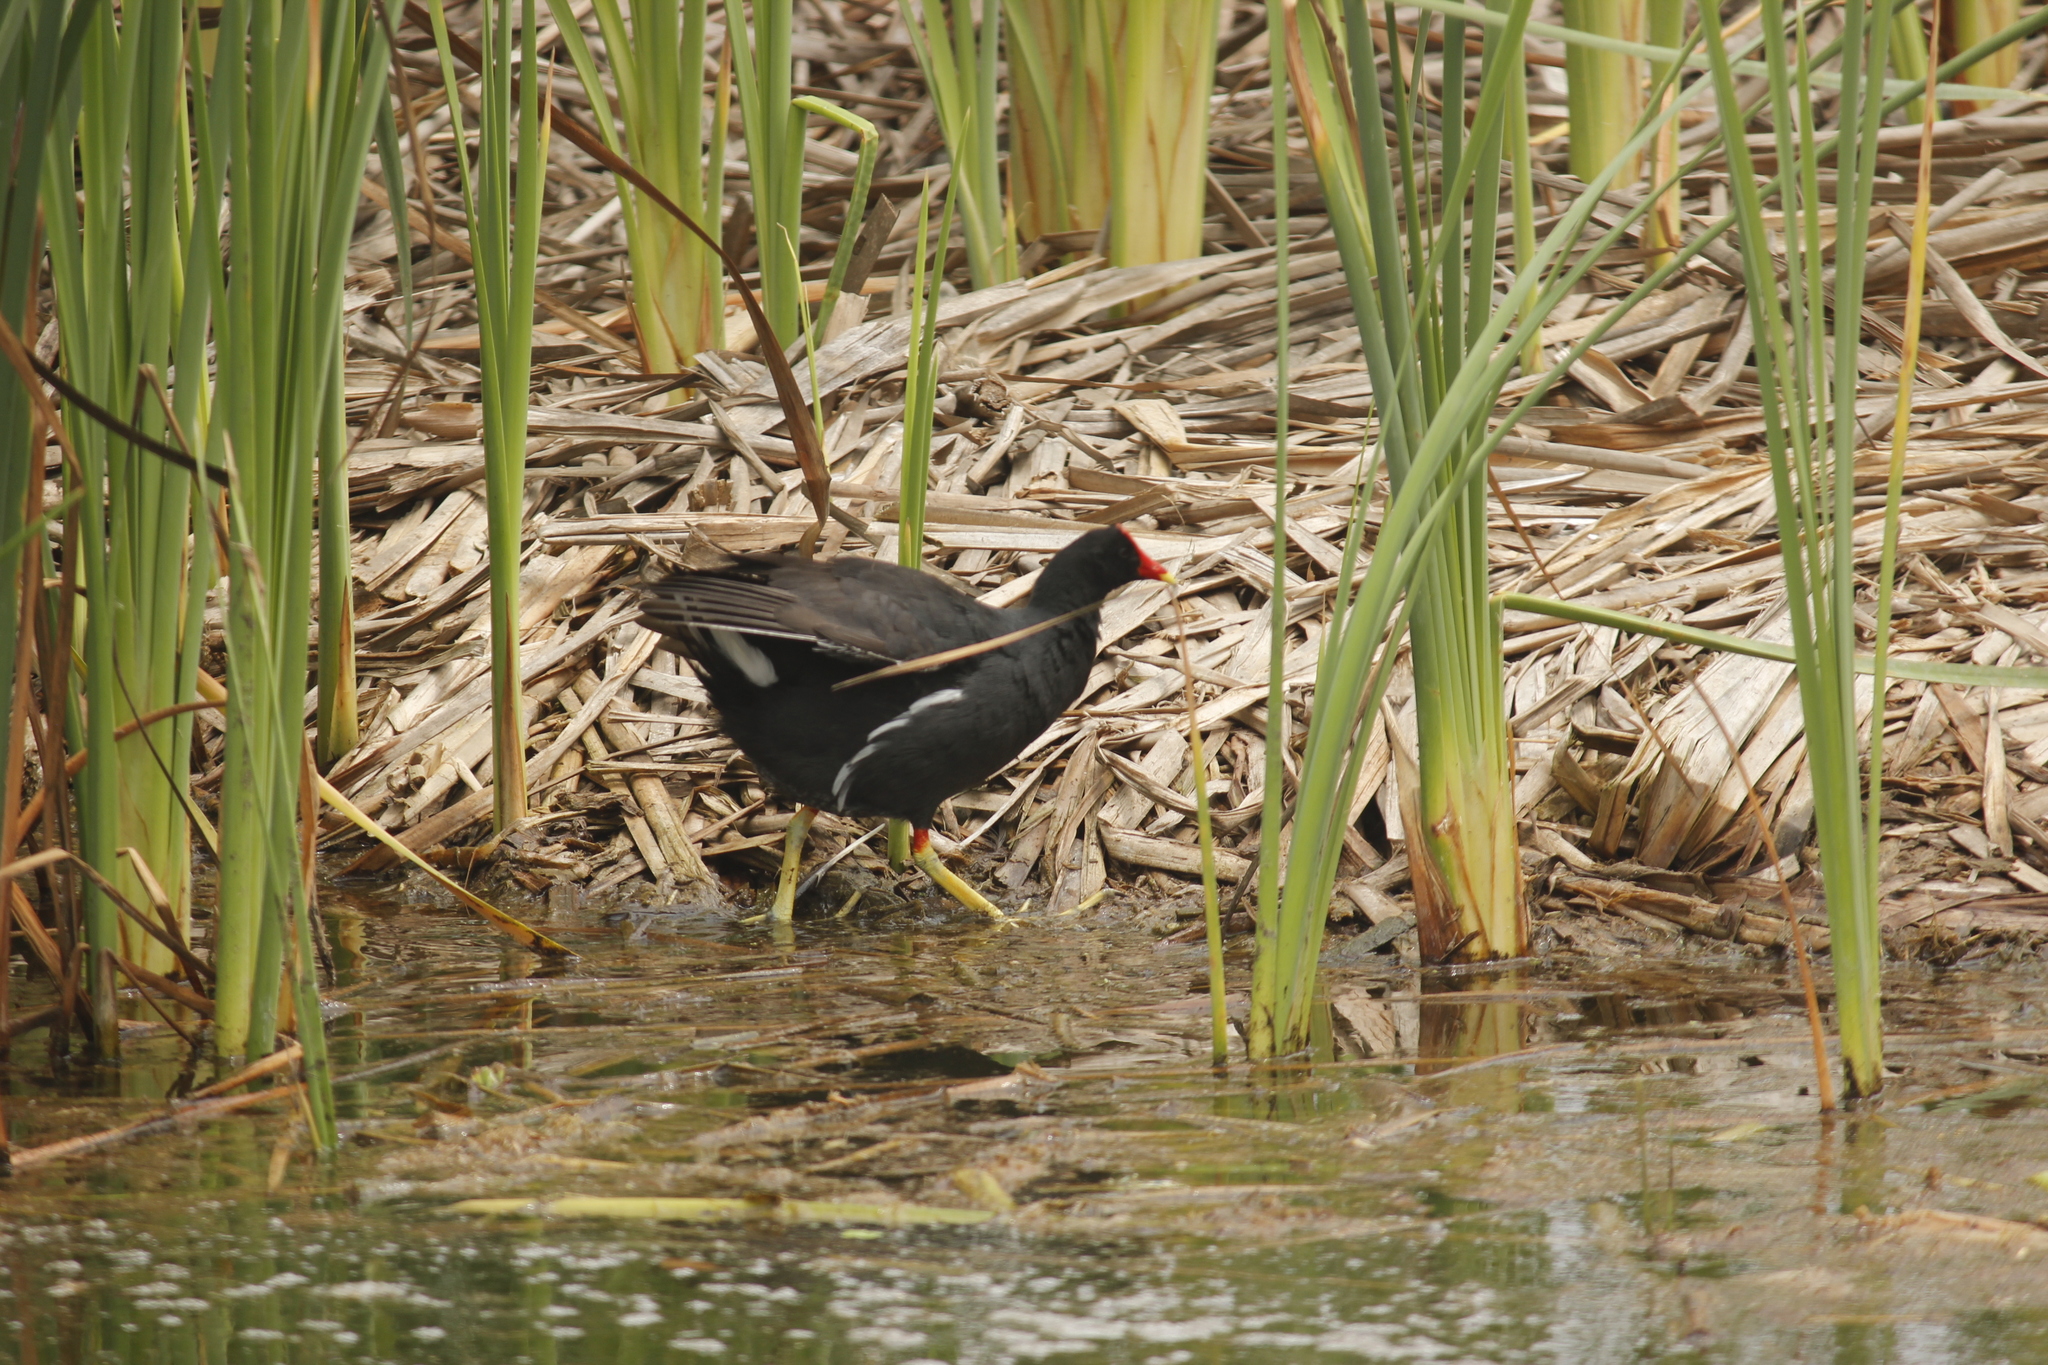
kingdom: Animalia
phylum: Chordata
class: Aves
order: Gruiformes
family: Rallidae
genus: Gallinula
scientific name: Gallinula chloropus
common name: Common moorhen
